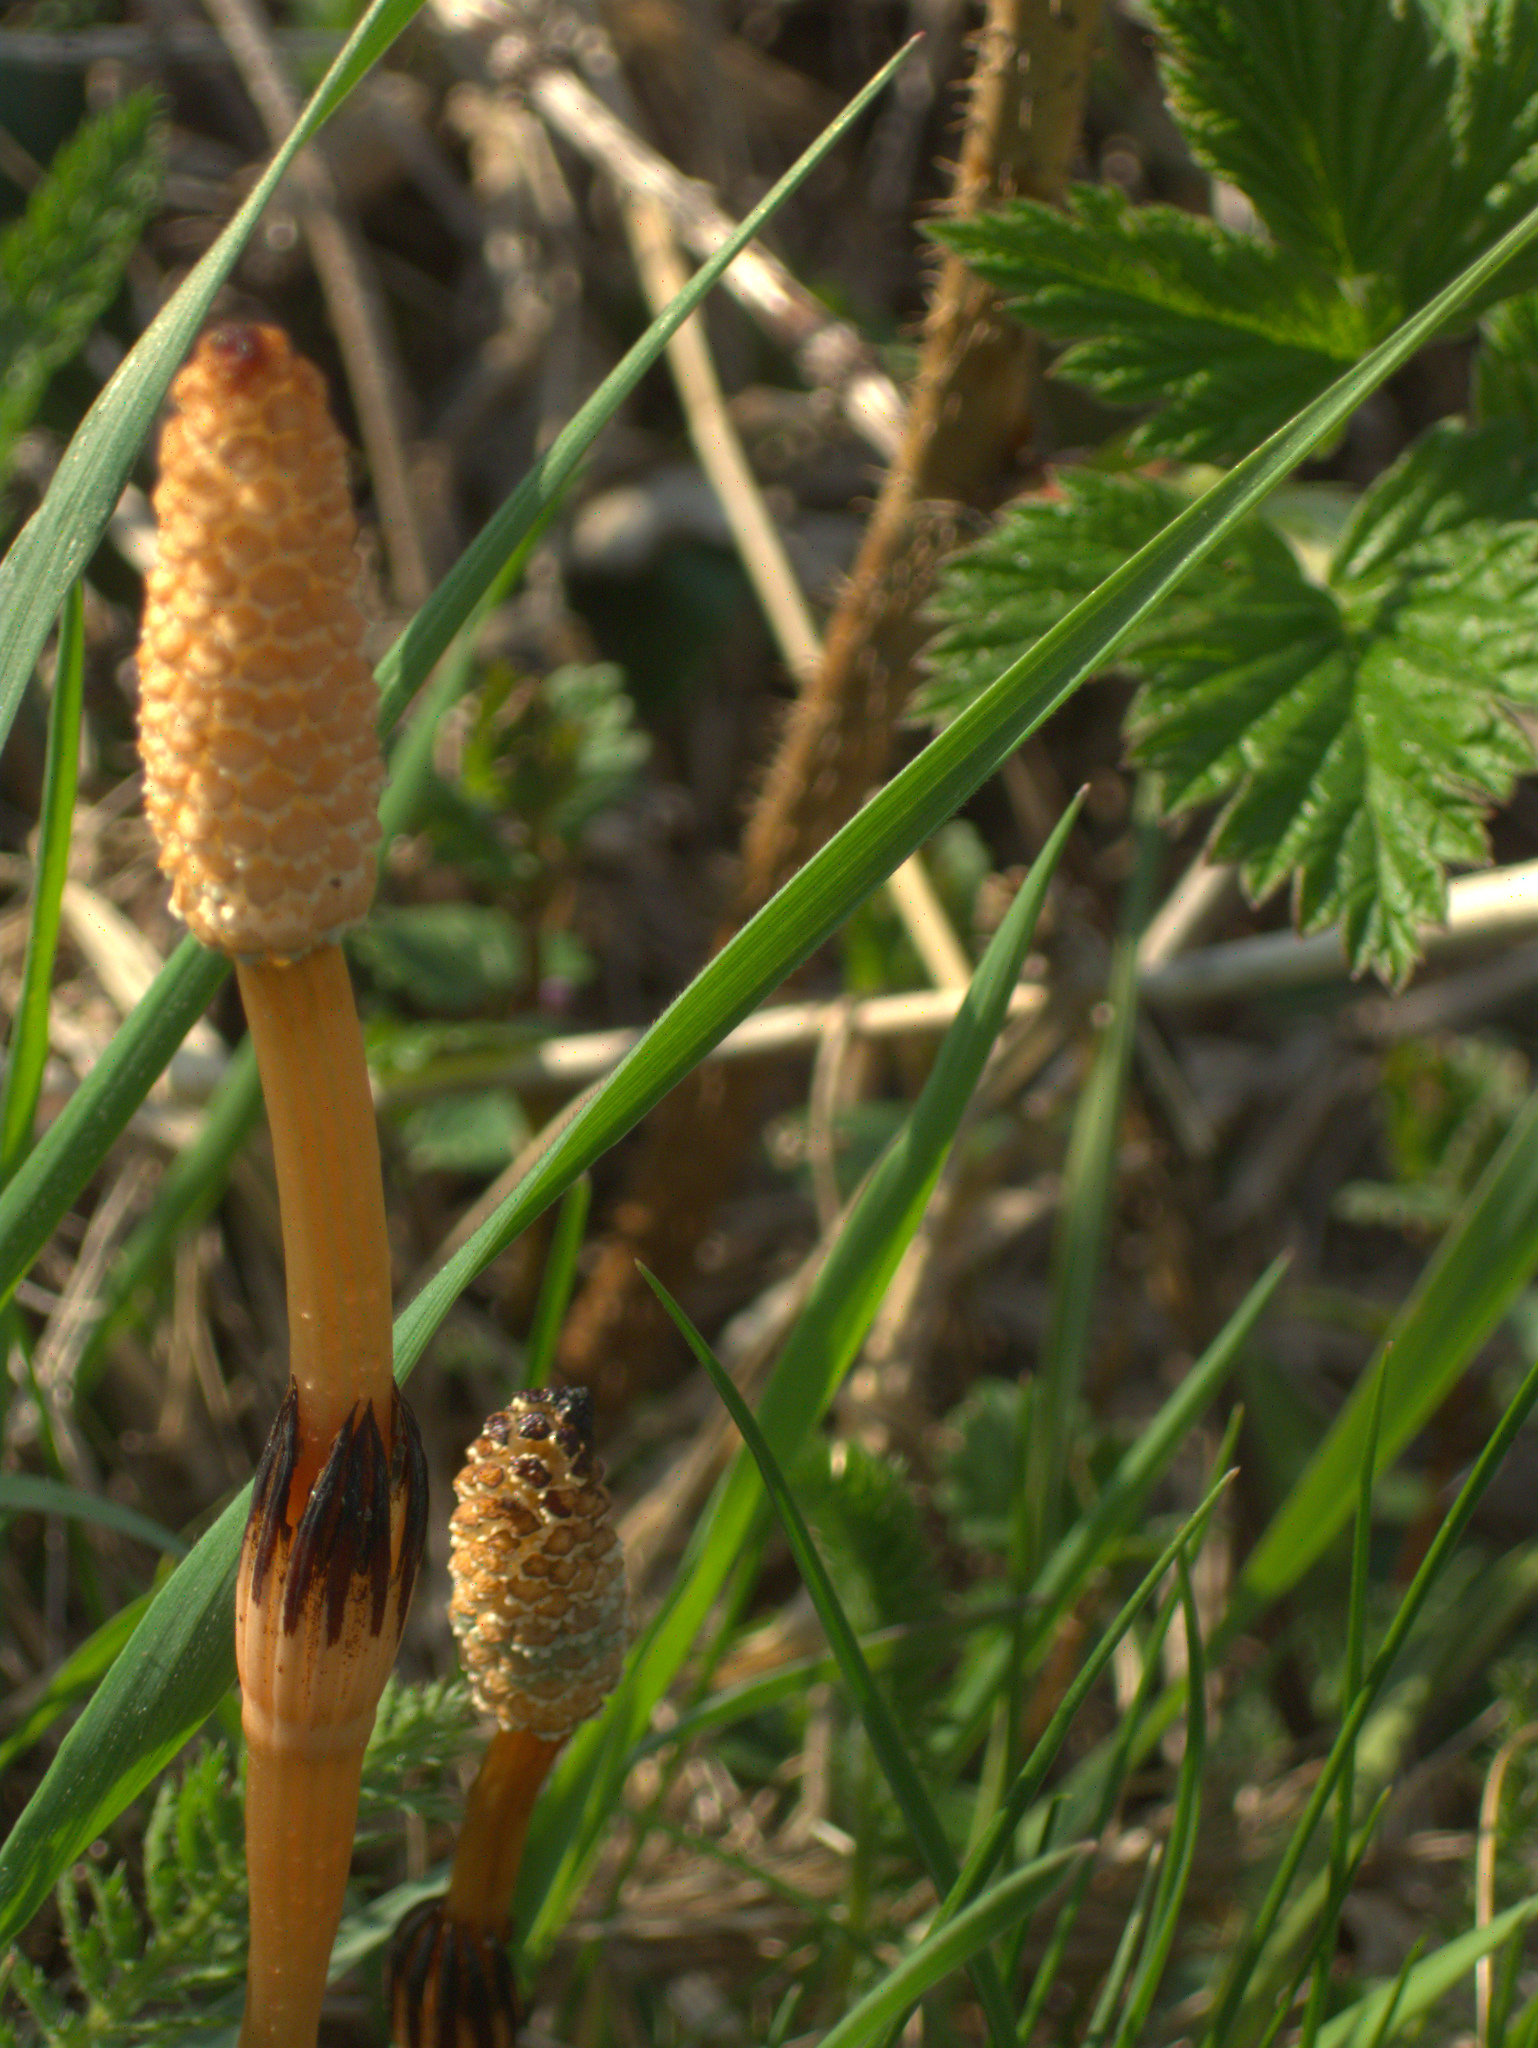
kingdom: Plantae
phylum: Tracheophyta
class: Polypodiopsida
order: Equisetales
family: Equisetaceae
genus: Equisetum
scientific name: Equisetum arvense
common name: Field horsetail
